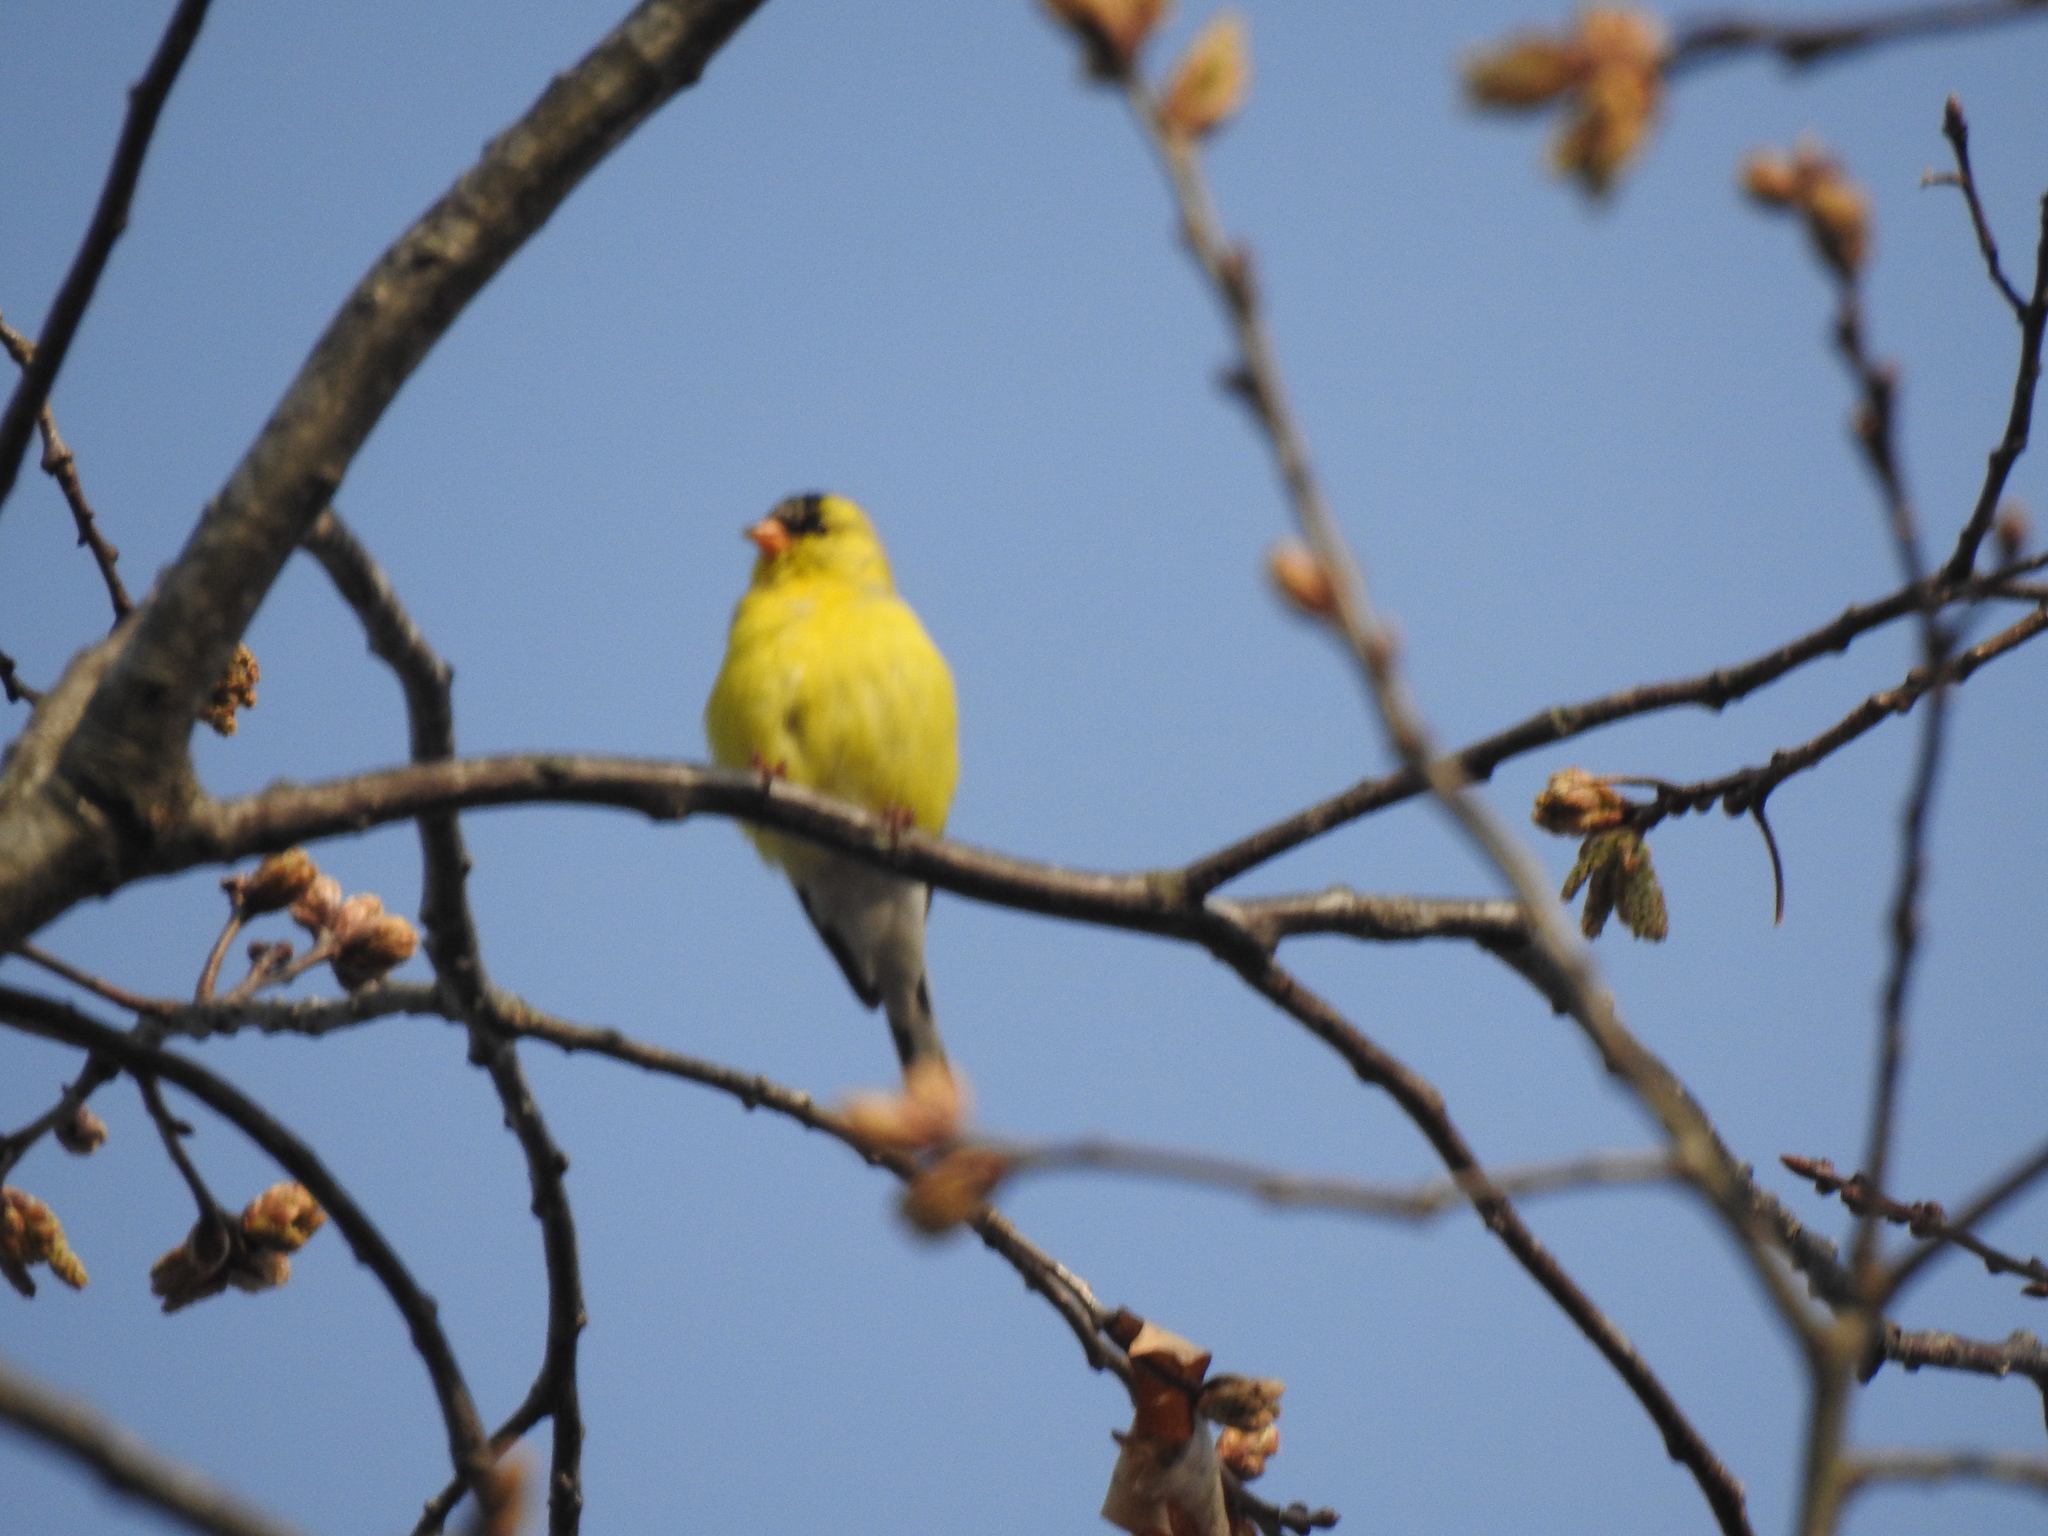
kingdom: Animalia
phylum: Chordata
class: Aves
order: Passeriformes
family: Fringillidae
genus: Spinus
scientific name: Spinus tristis
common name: American goldfinch
